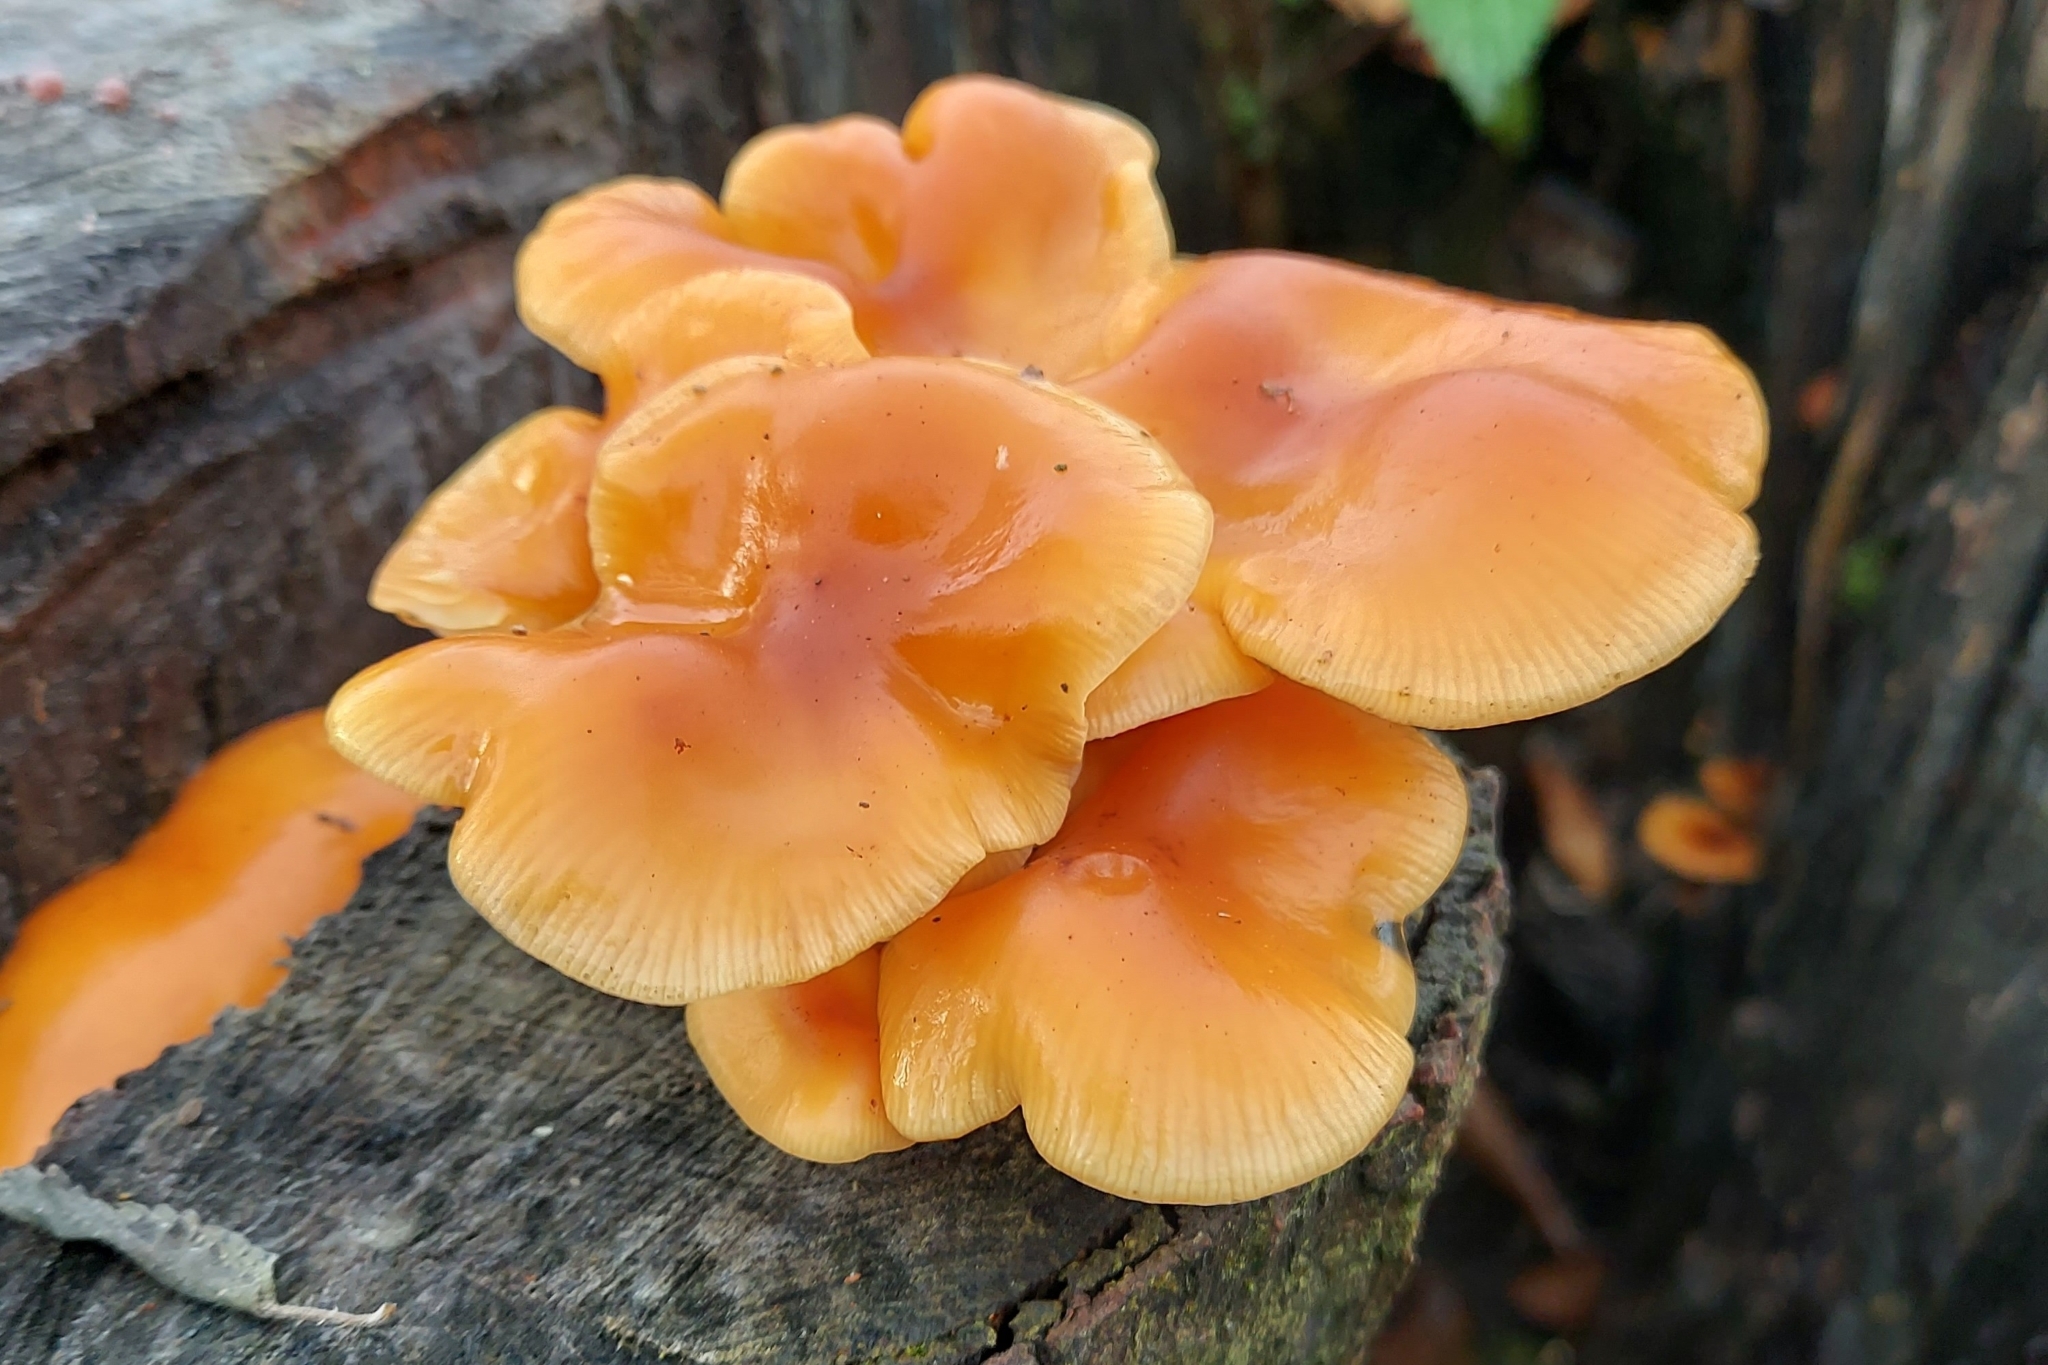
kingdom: Fungi
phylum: Basidiomycota
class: Agaricomycetes
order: Agaricales
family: Physalacriaceae
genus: Flammulina
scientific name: Flammulina
